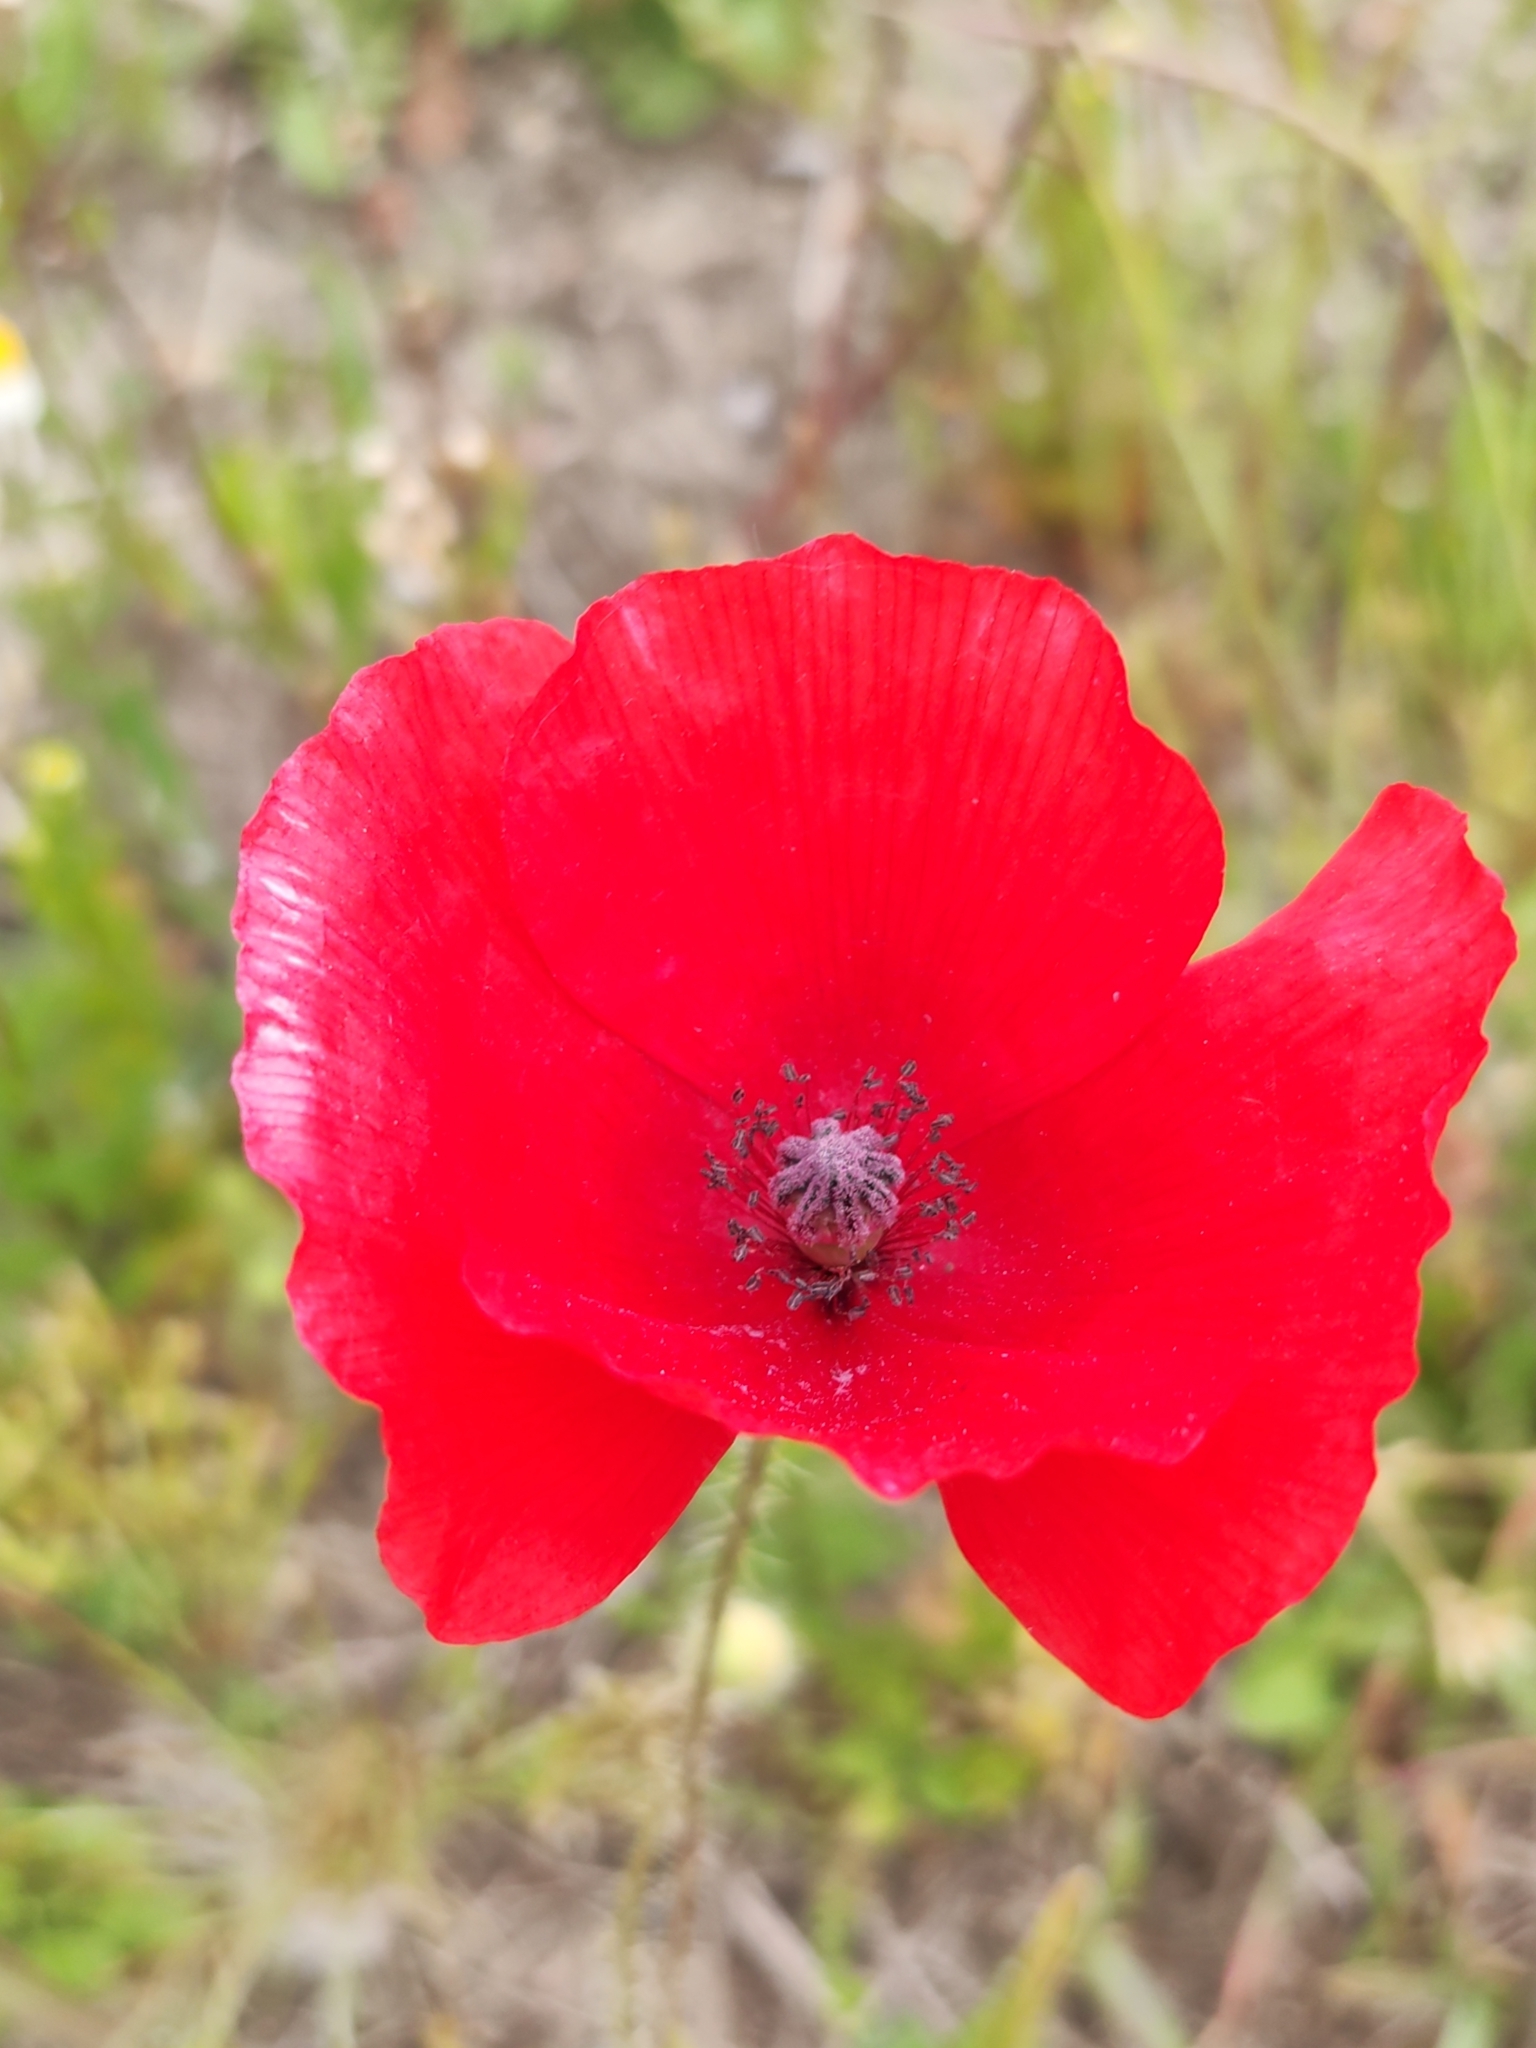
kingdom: Plantae
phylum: Tracheophyta
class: Magnoliopsida
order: Ranunculales
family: Papaveraceae
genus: Papaver
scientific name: Papaver rhoeas
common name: Corn poppy
